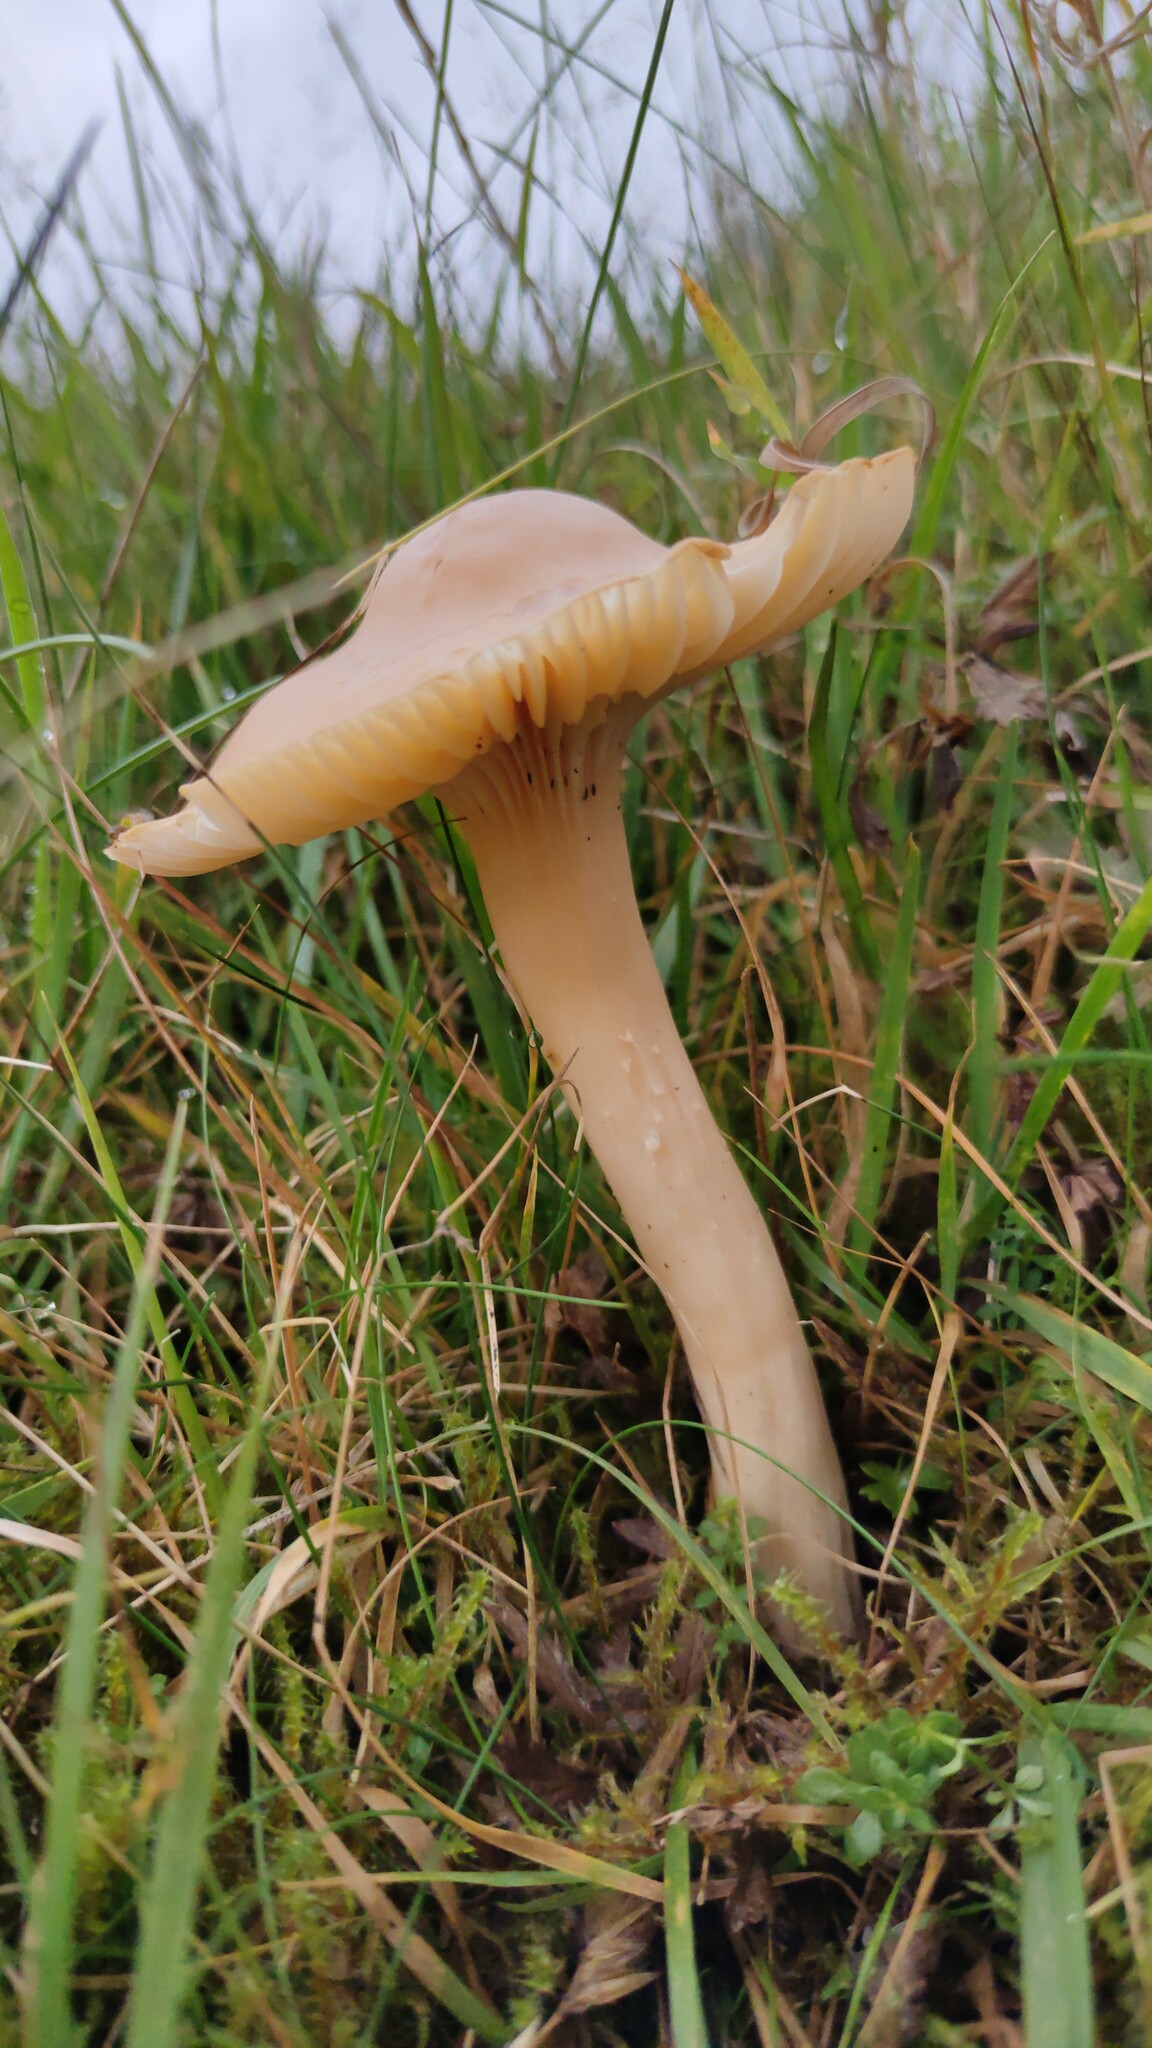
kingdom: Fungi
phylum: Basidiomycota
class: Agaricomycetes
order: Agaricales
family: Hygrophoraceae
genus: Cuphophyllus
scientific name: Cuphophyllus pratensis
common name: Meadow waxcap
